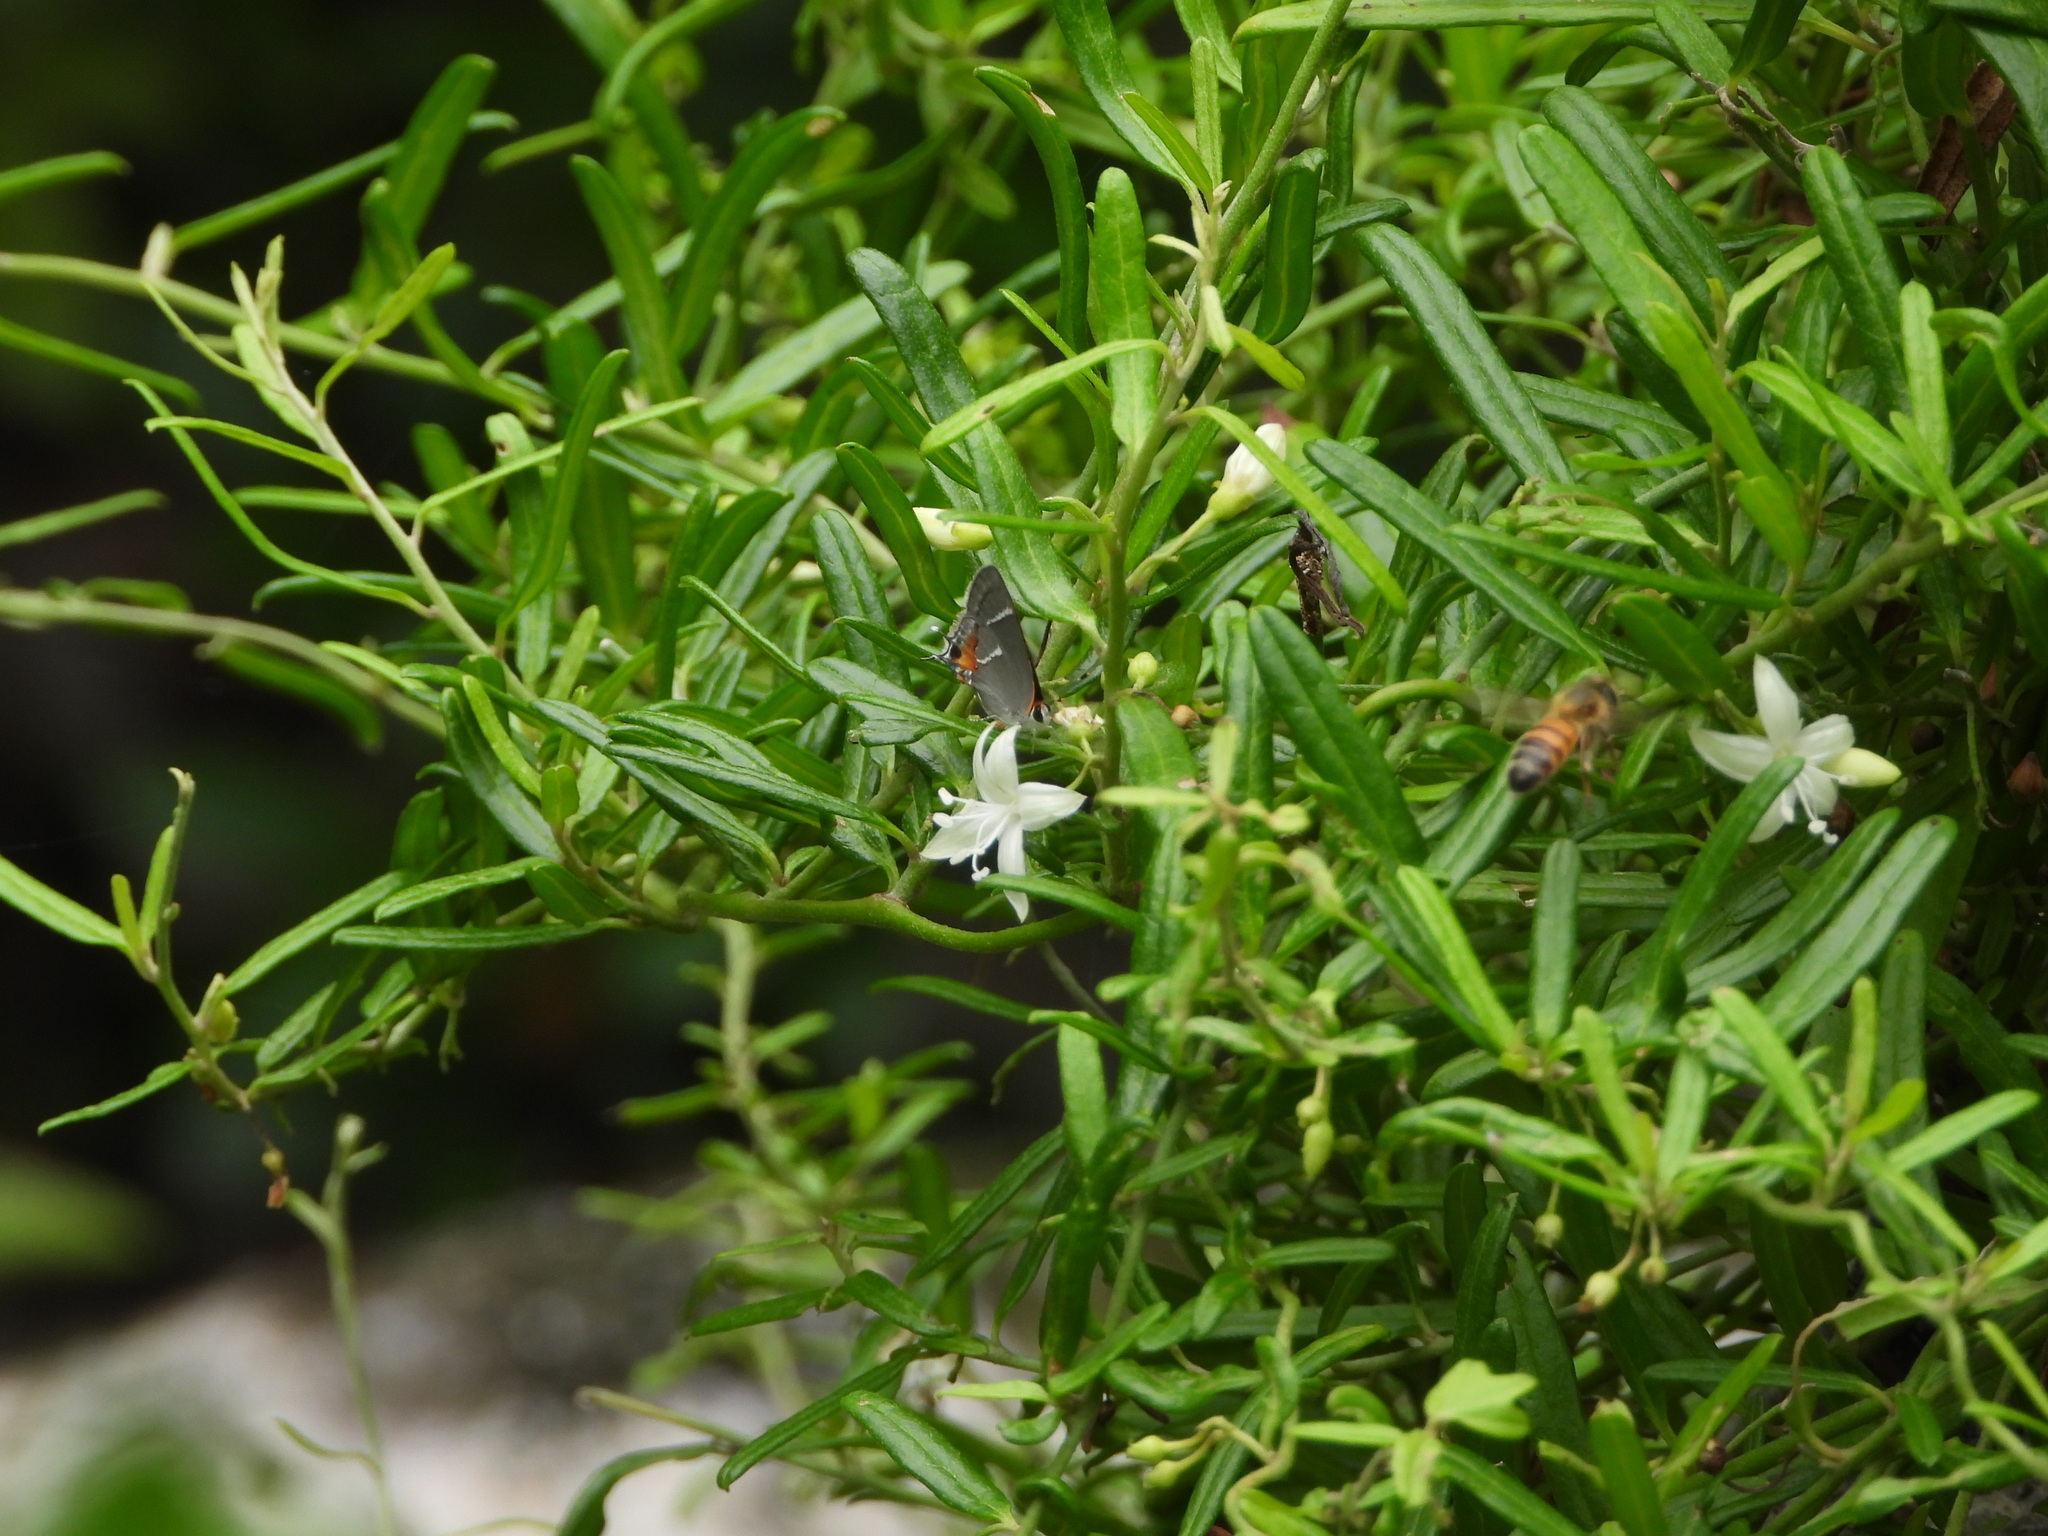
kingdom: Animalia
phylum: Arthropoda
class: Insecta
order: Hymenoptera
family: Apidae
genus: Apis
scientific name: Apis mellifera
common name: Honey bee
